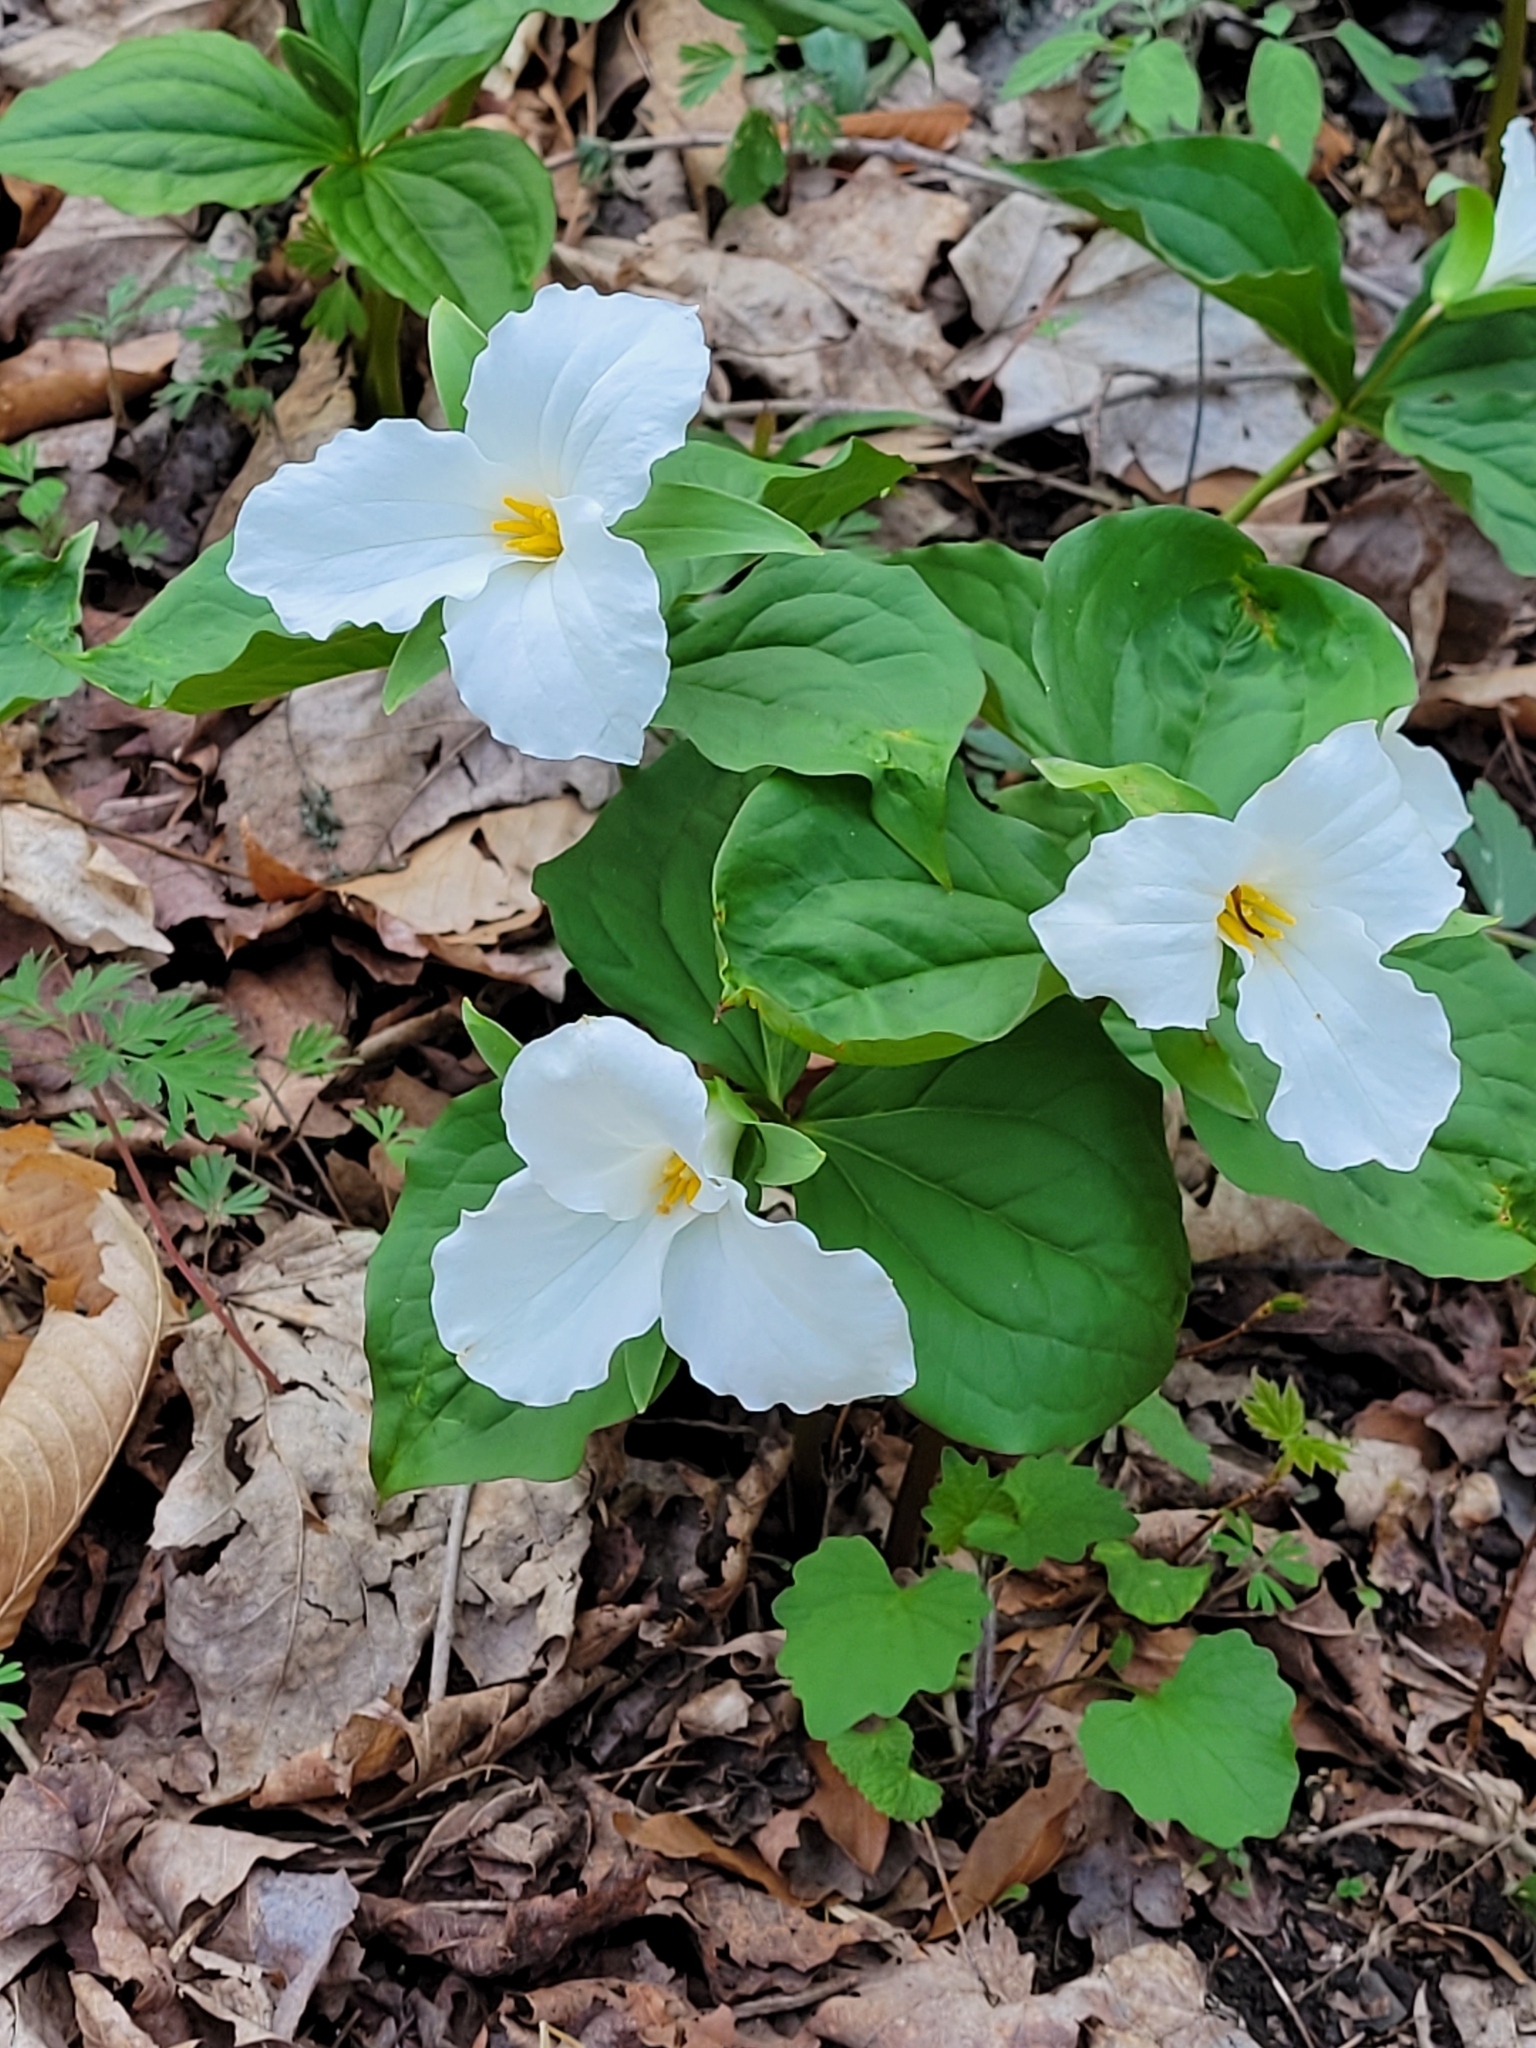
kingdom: Plantae
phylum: Tracheophyta
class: Liliopsida
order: Liliales
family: Melanthiaceae
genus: Trillium
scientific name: Trillium grandiflorum
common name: Great white trillium
